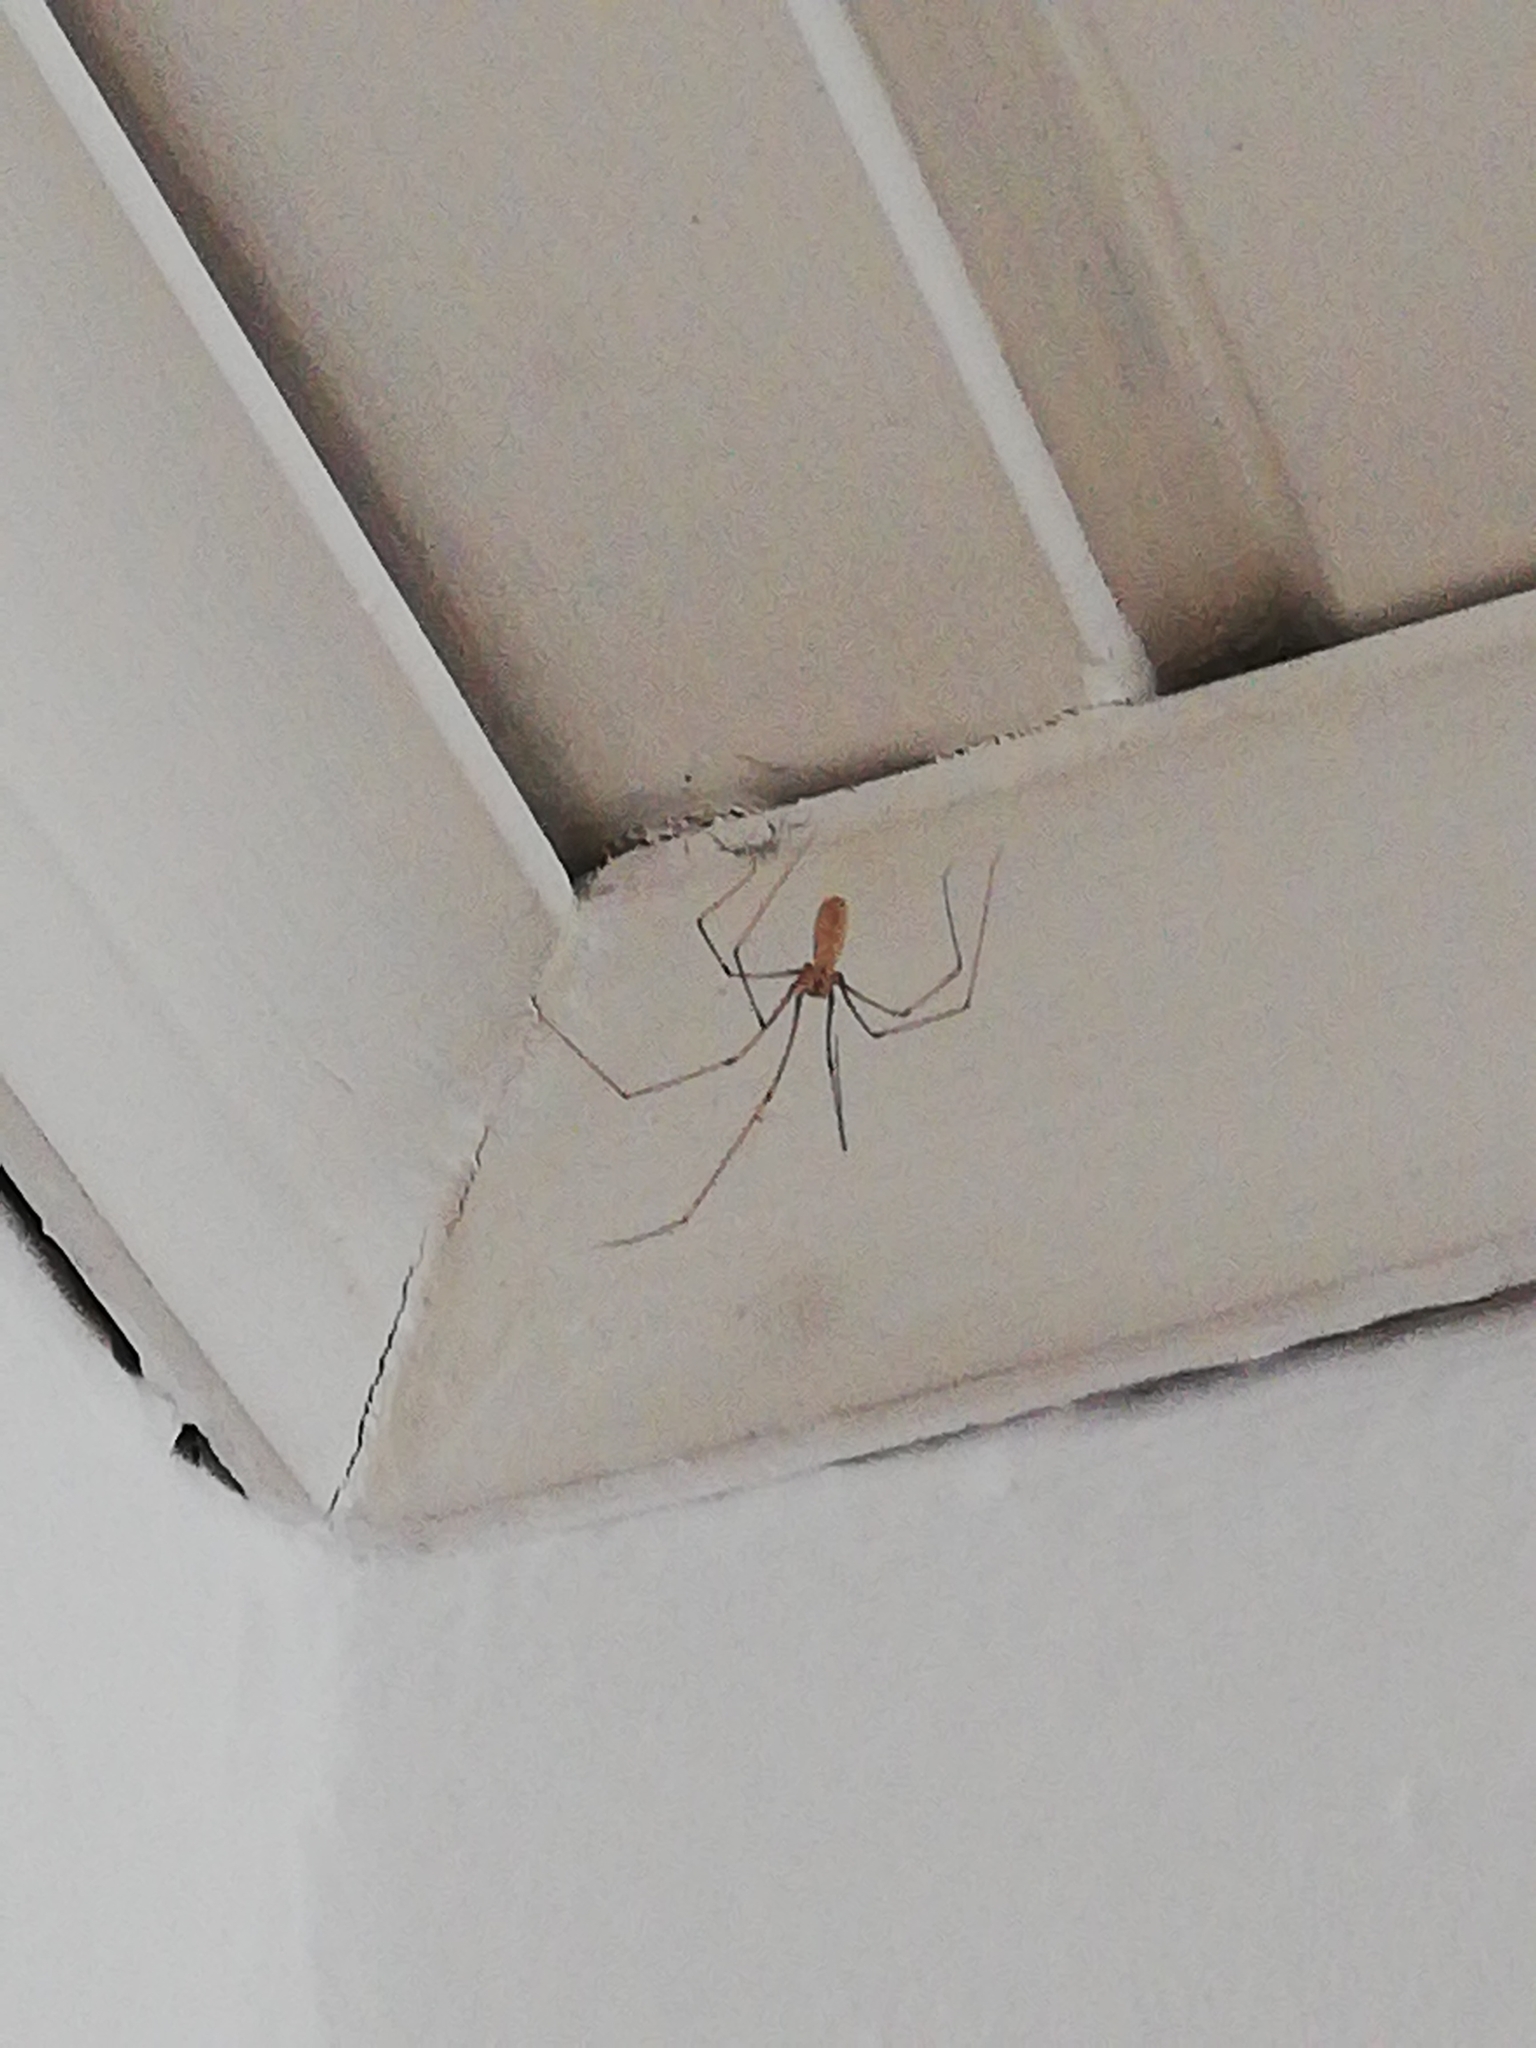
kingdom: Animalia
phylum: Arthropoda
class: Arachnida
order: Araneae
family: Pholcidae
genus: Pholcus
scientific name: Pholcus phalangioides
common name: Longbodied cellar spider
